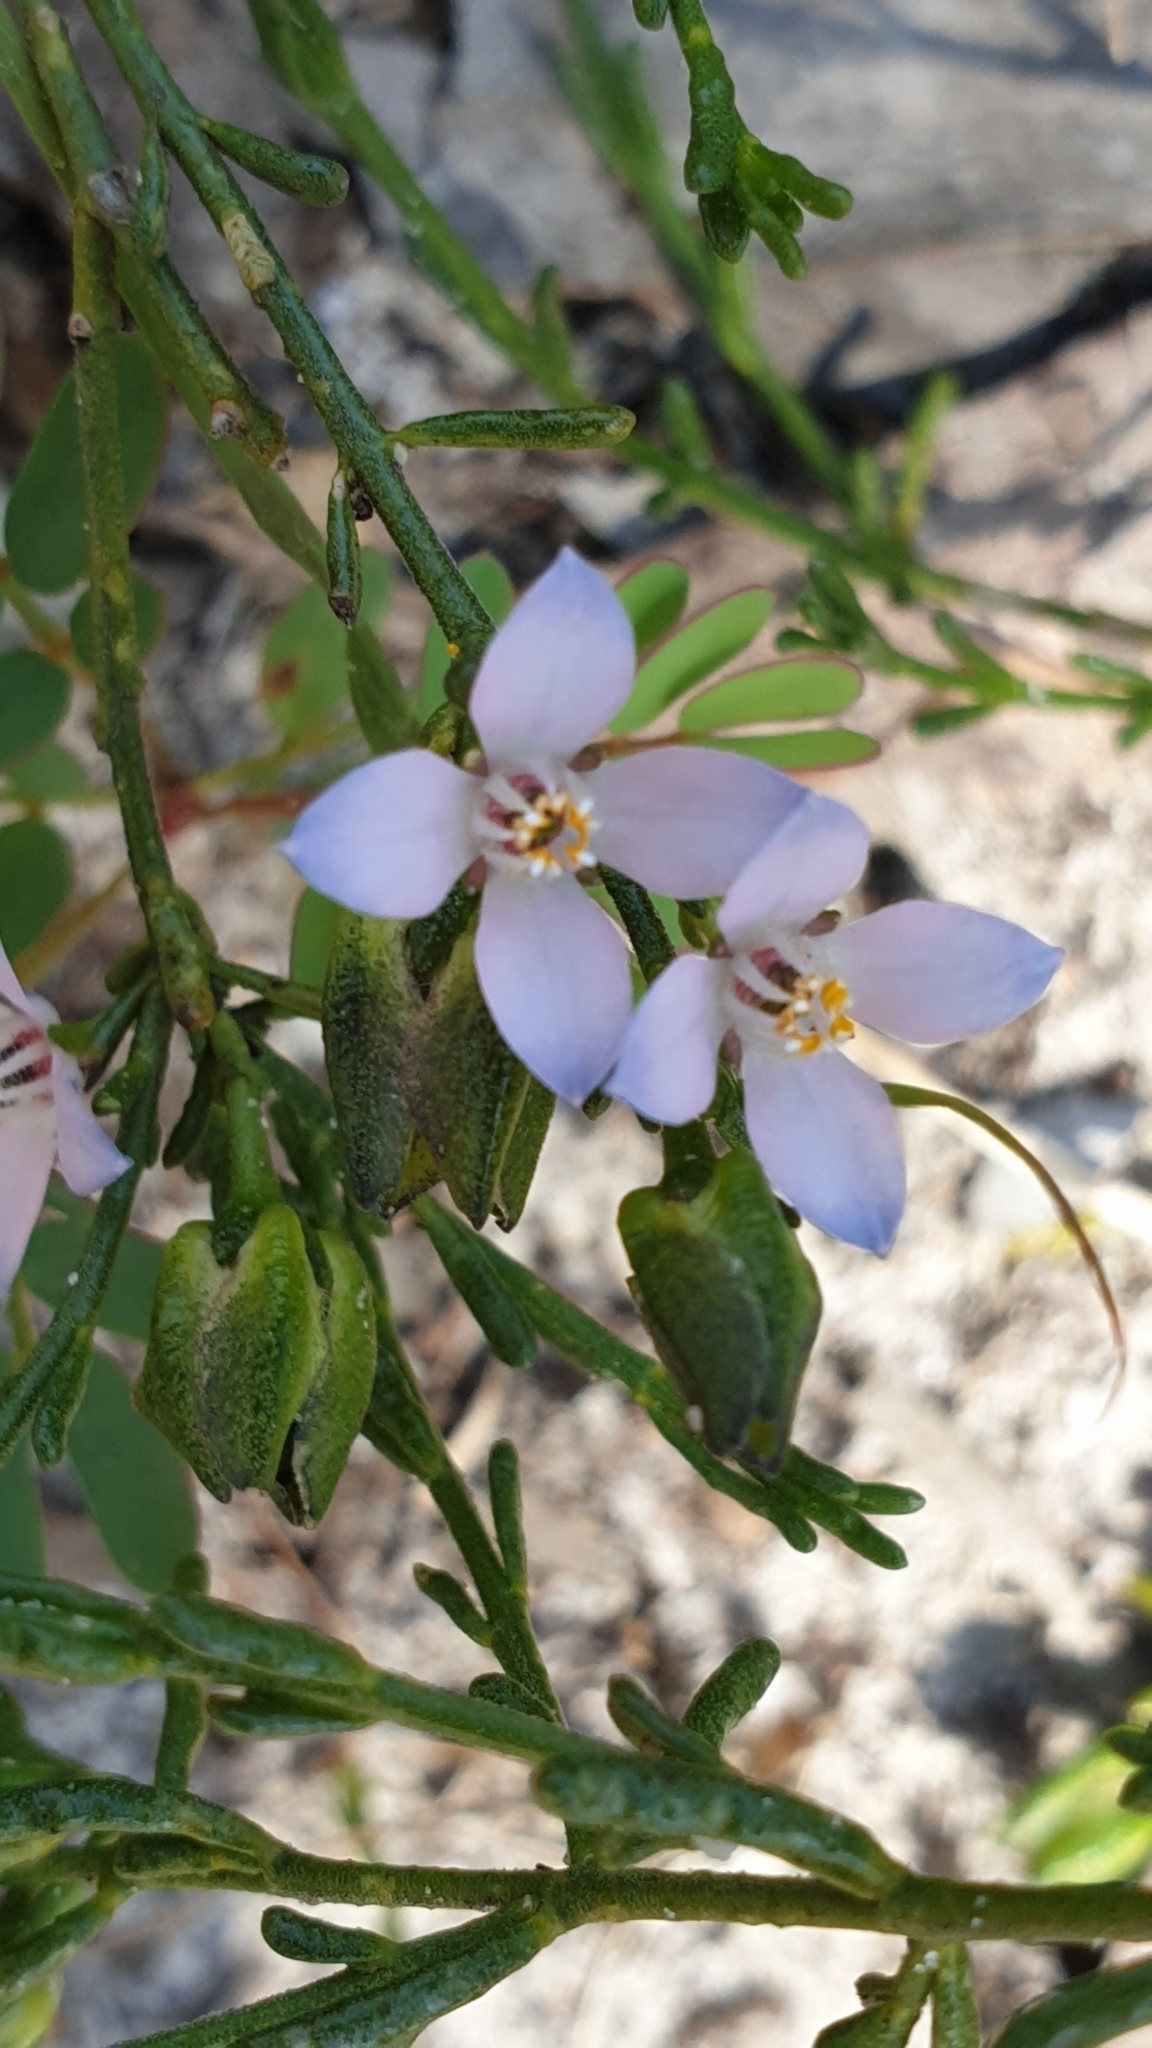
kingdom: Plantae
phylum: Tracheophyta
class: Magnoliopsida
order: Sapindales
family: Rutaceae
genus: Cyanothamnus
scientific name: Cyanothamnus coerulescens
